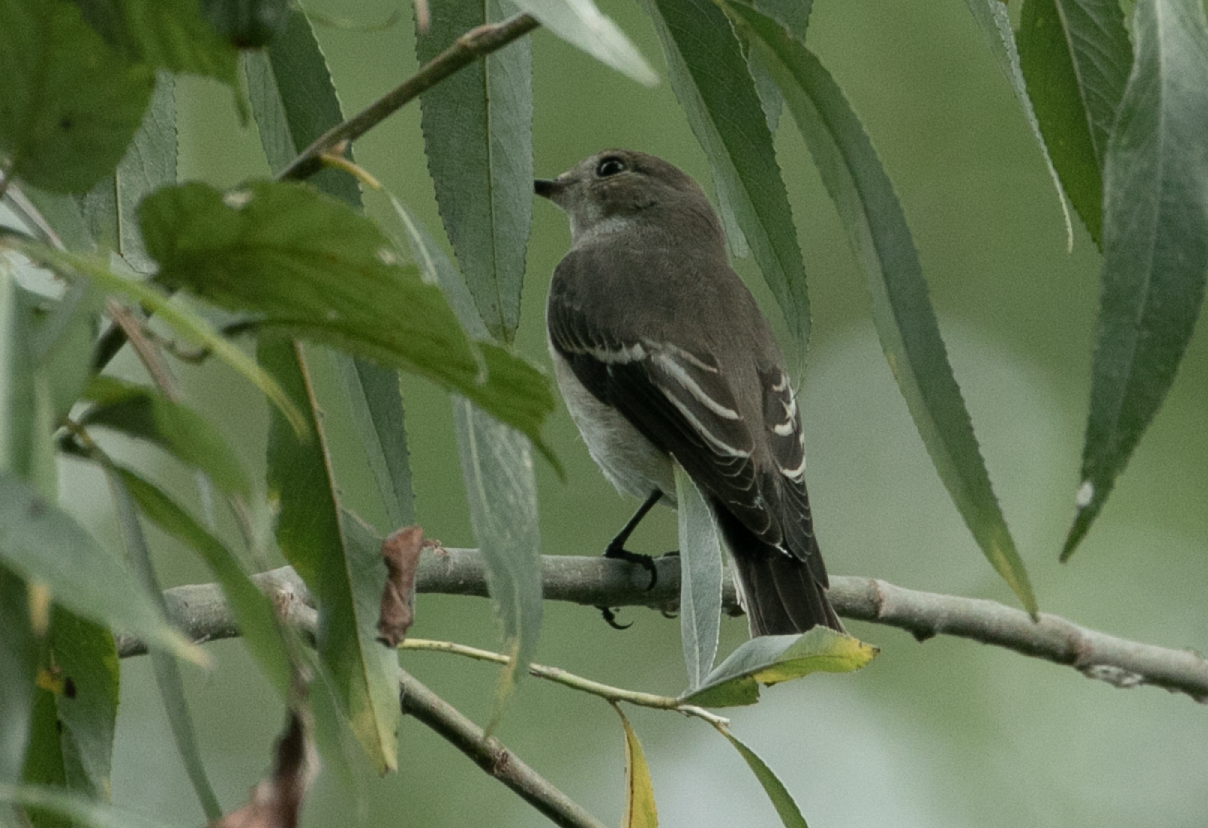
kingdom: Animalia
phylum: Chordata
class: Aves
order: Passeriformes
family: Muscicapidae
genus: Ficedula
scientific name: Ficedula hypoleuca
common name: European pied flycatcher
